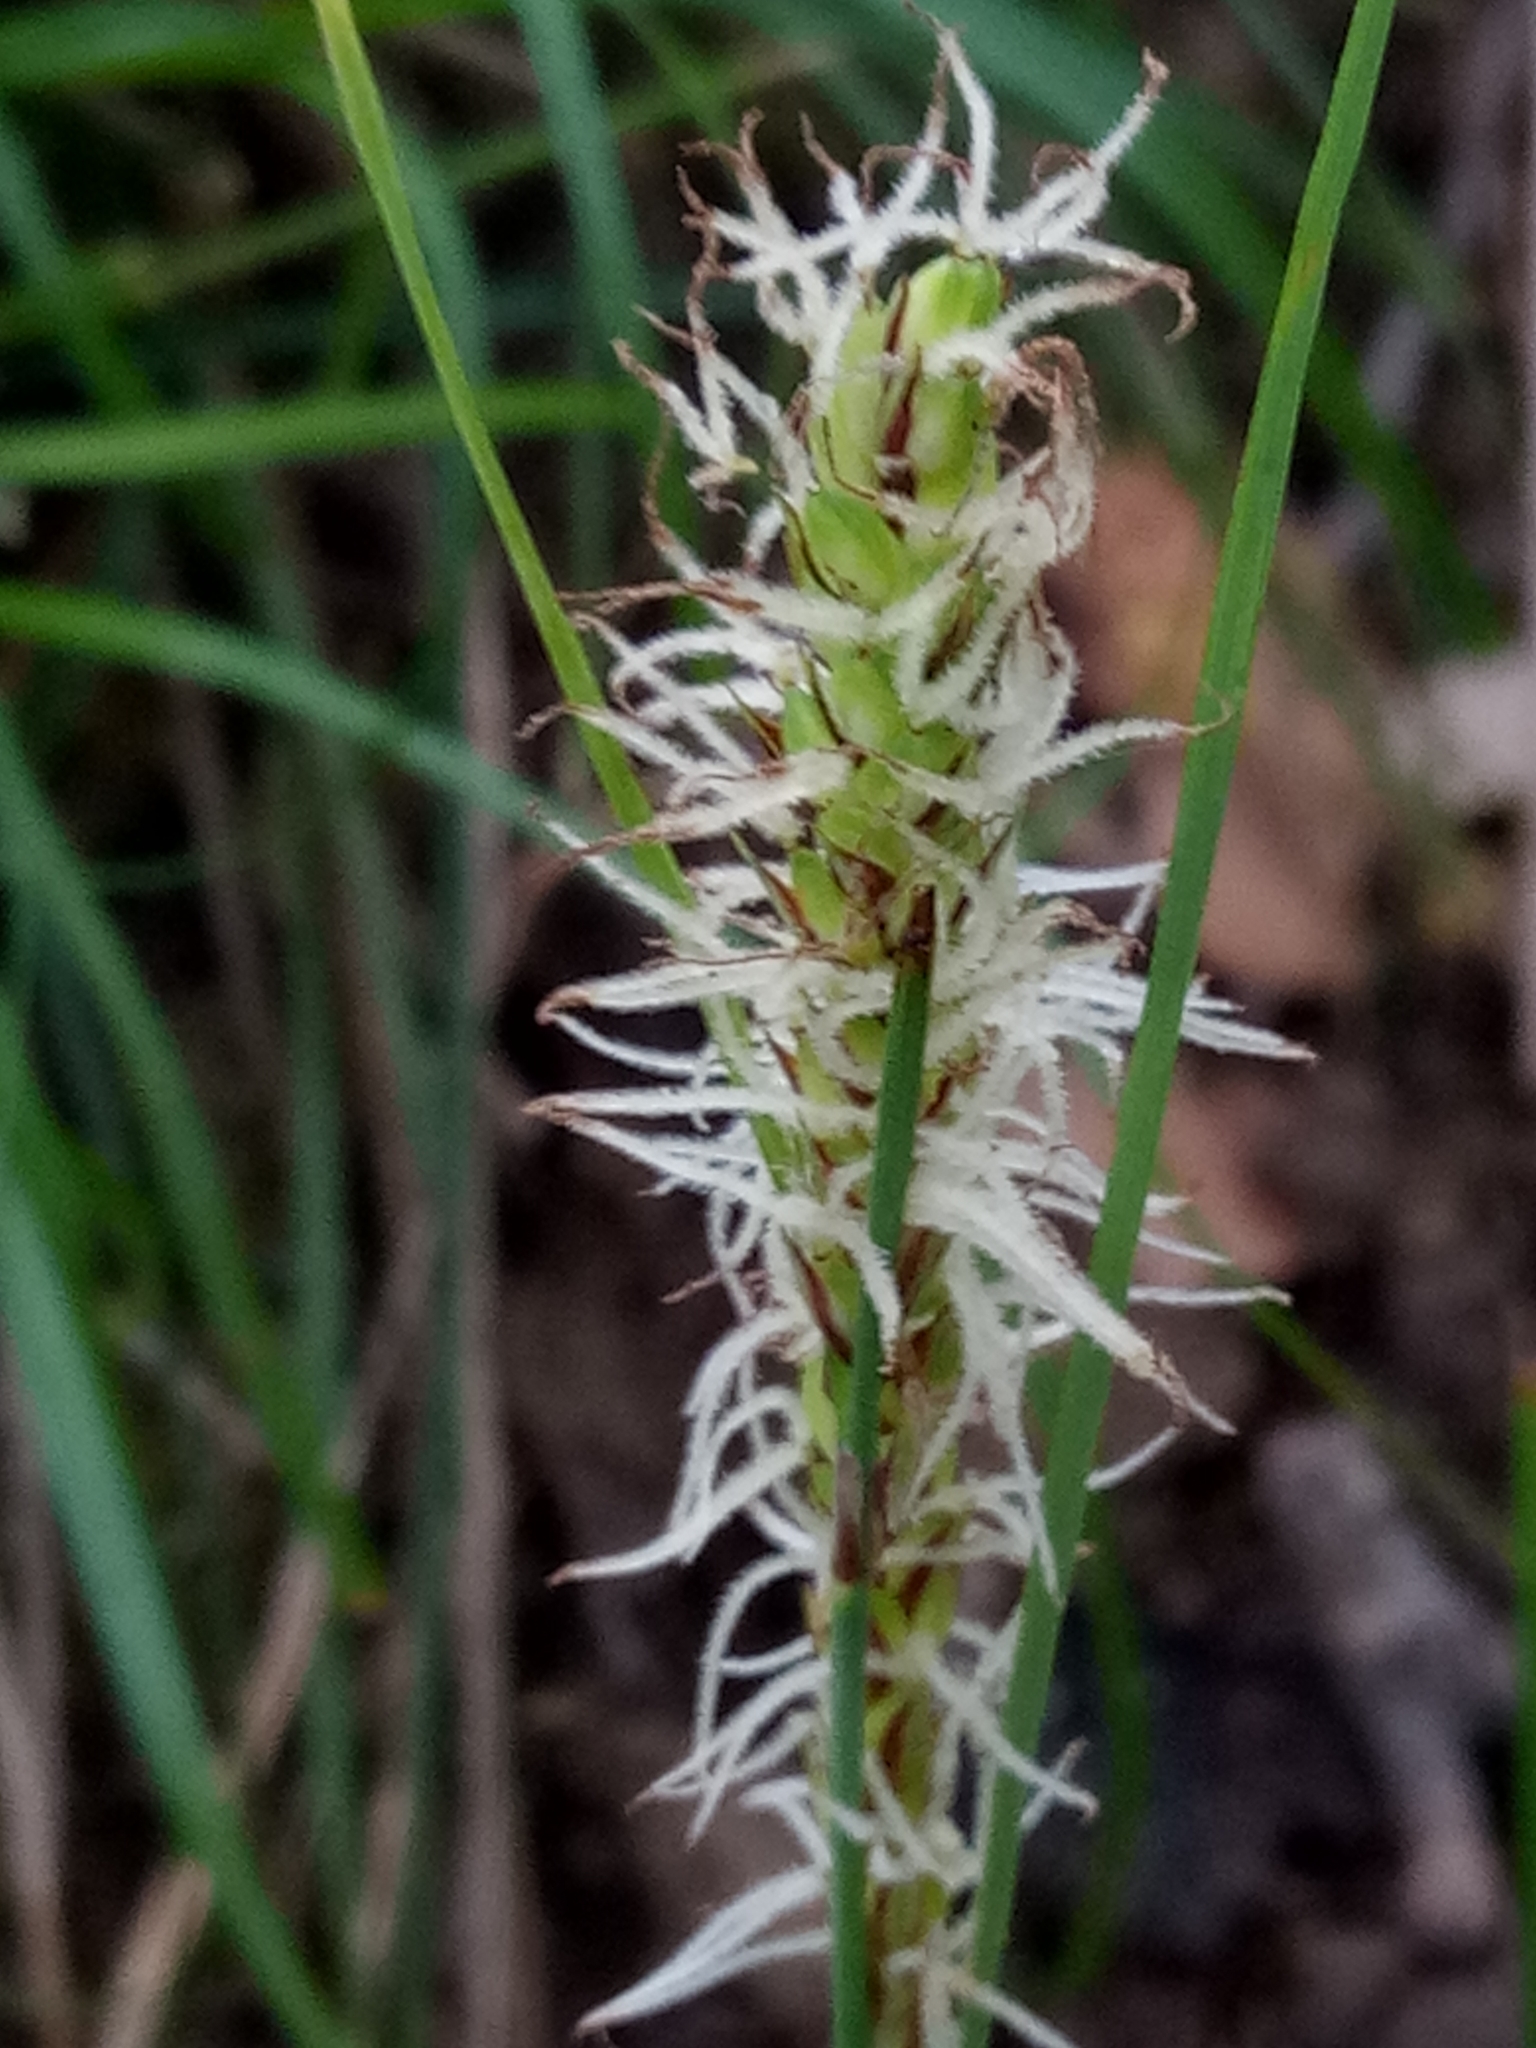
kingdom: Plantae
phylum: Tracheophyta
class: Liliopsida
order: Poales
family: Cyperaceae
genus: Carex
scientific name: Carex flacca
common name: Glaucous sedge
